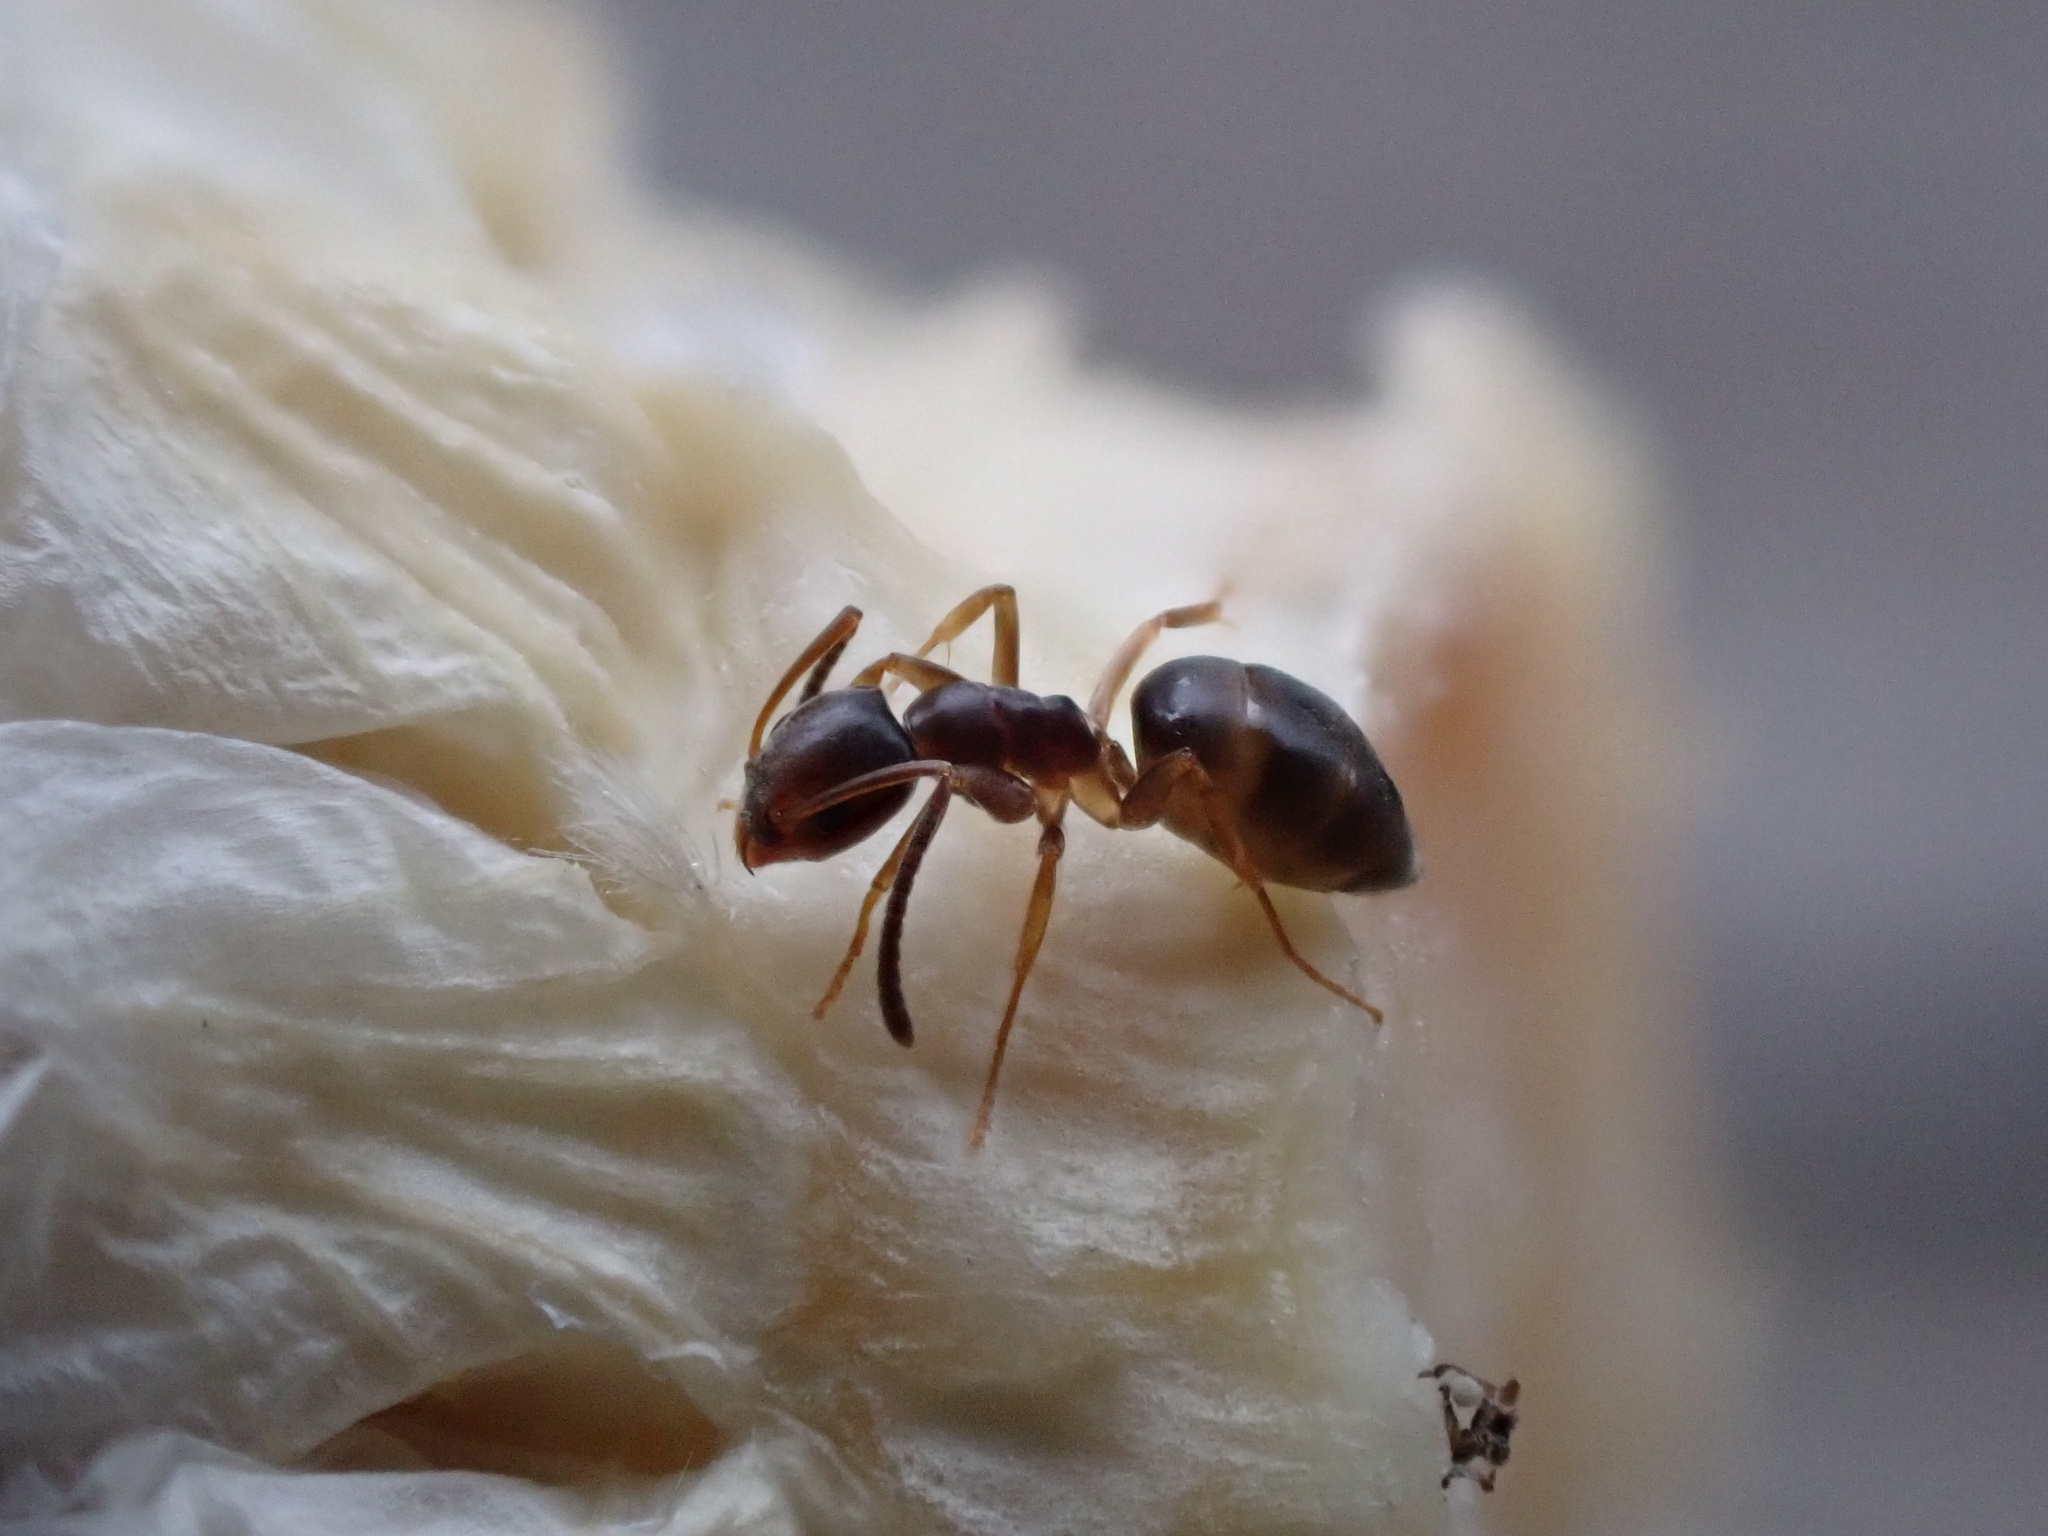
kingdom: Animalia
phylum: Arthropoda
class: Insecta
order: Hymenoptera
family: Formicidae
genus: Tapinoma
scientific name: Tapinoma sessile
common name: Odorous house ant
